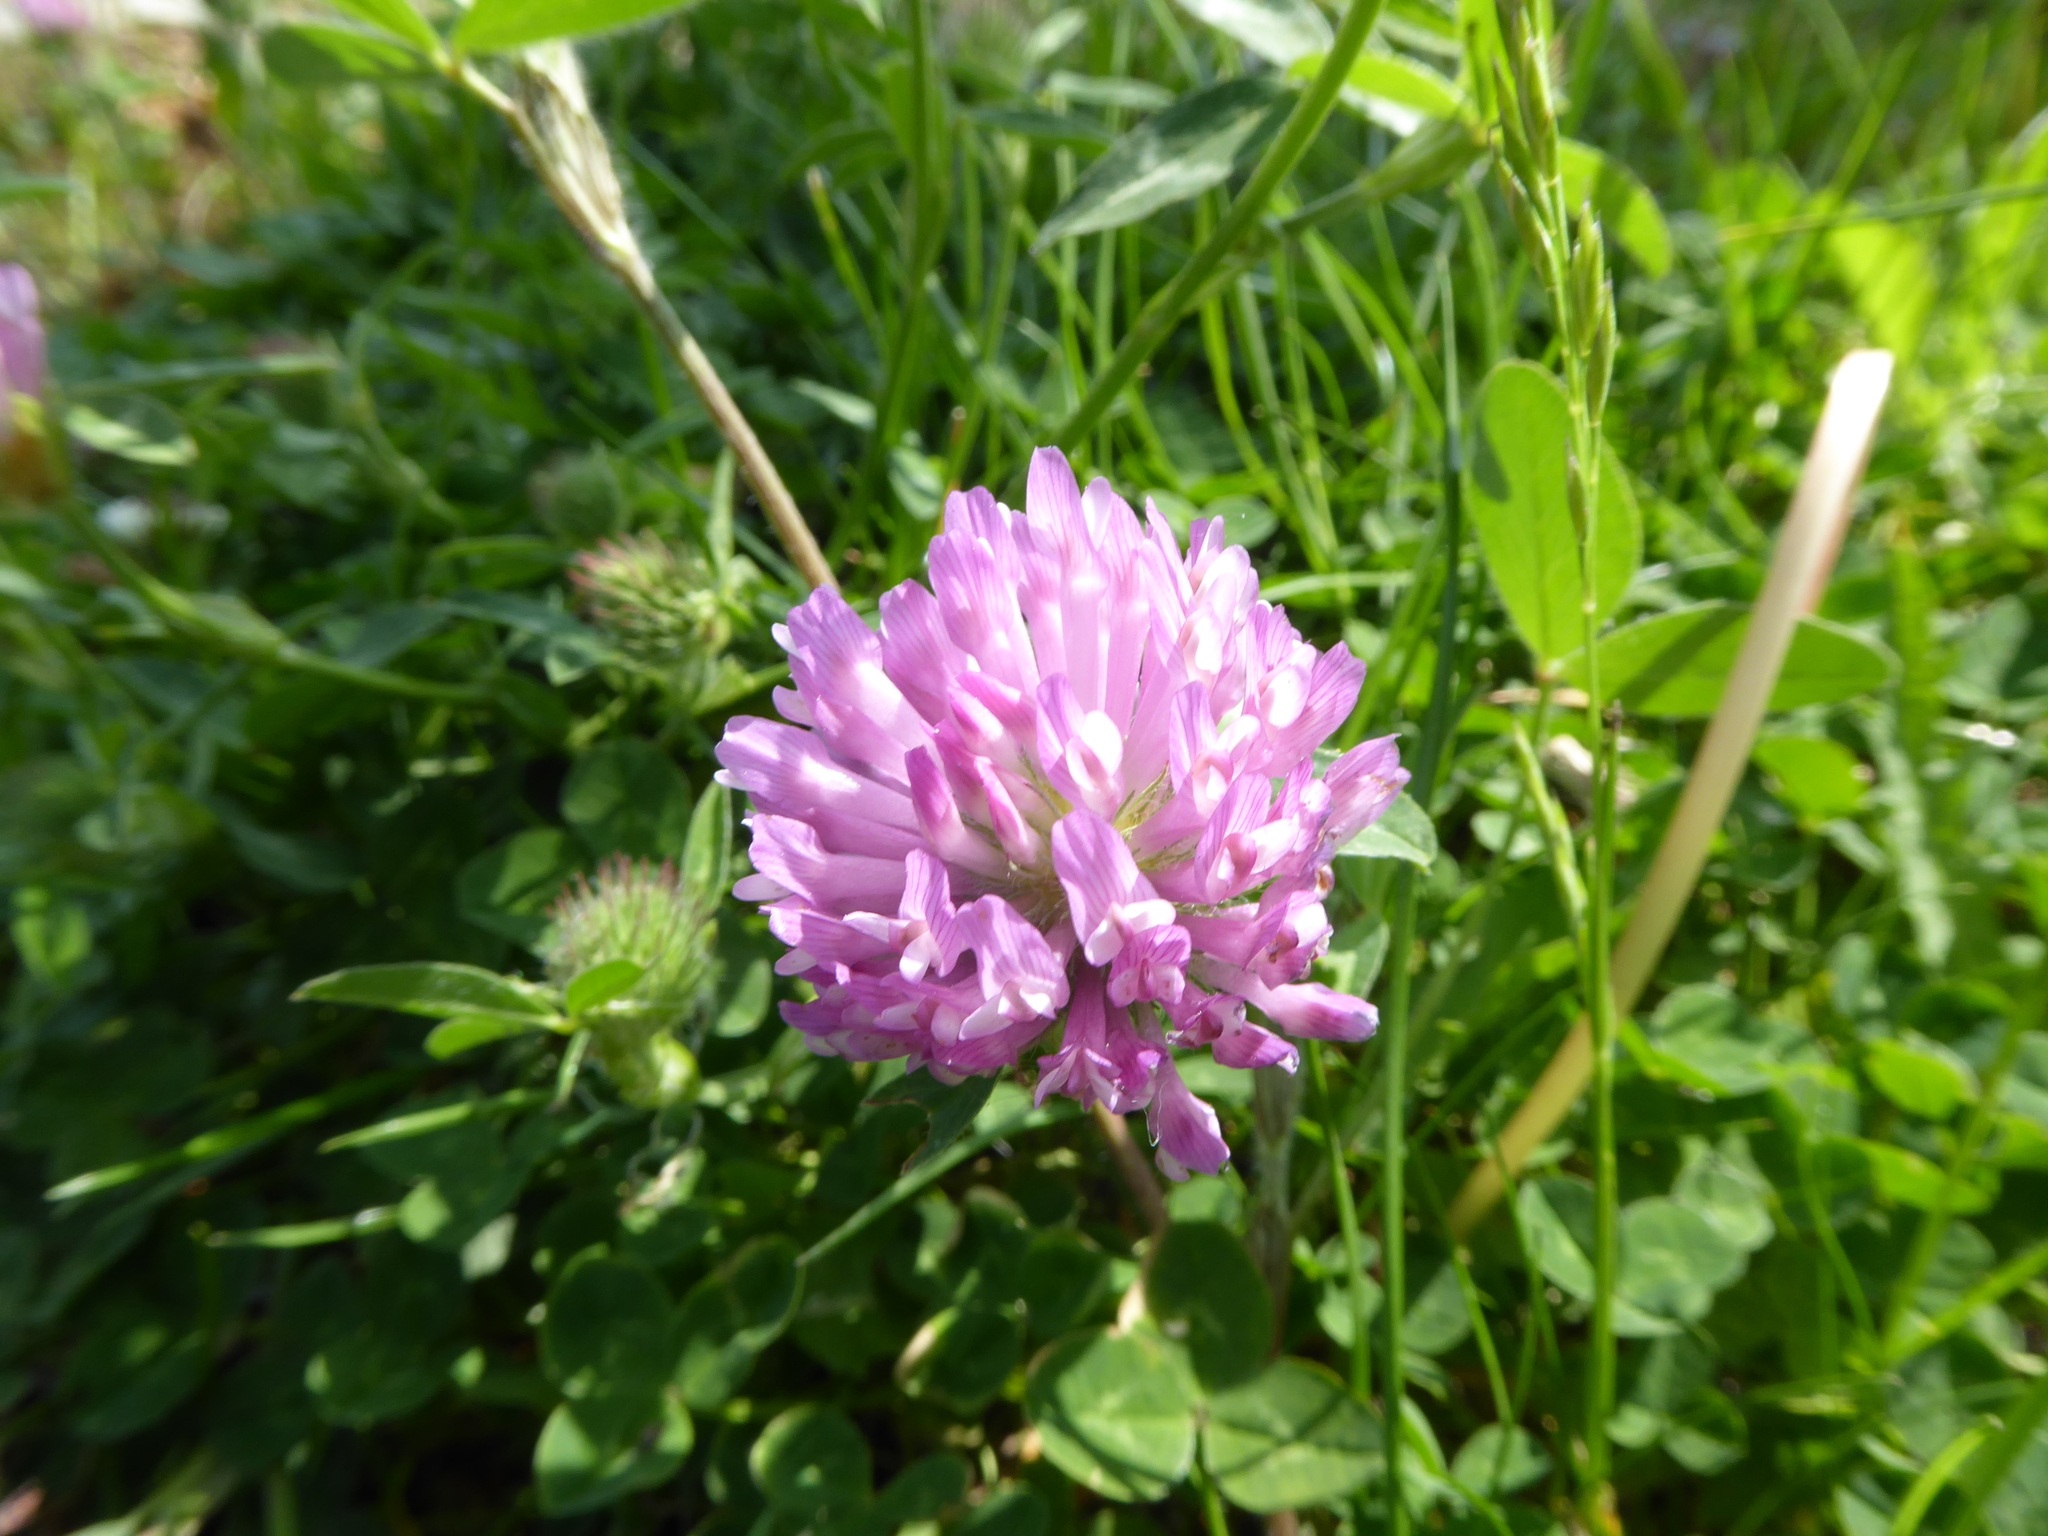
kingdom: Plantae
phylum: Tracheophyta
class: Magnoliopsida
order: Fabales
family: Fabaceae
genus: Trifolium
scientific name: Trifolium pratense
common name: Red clover
